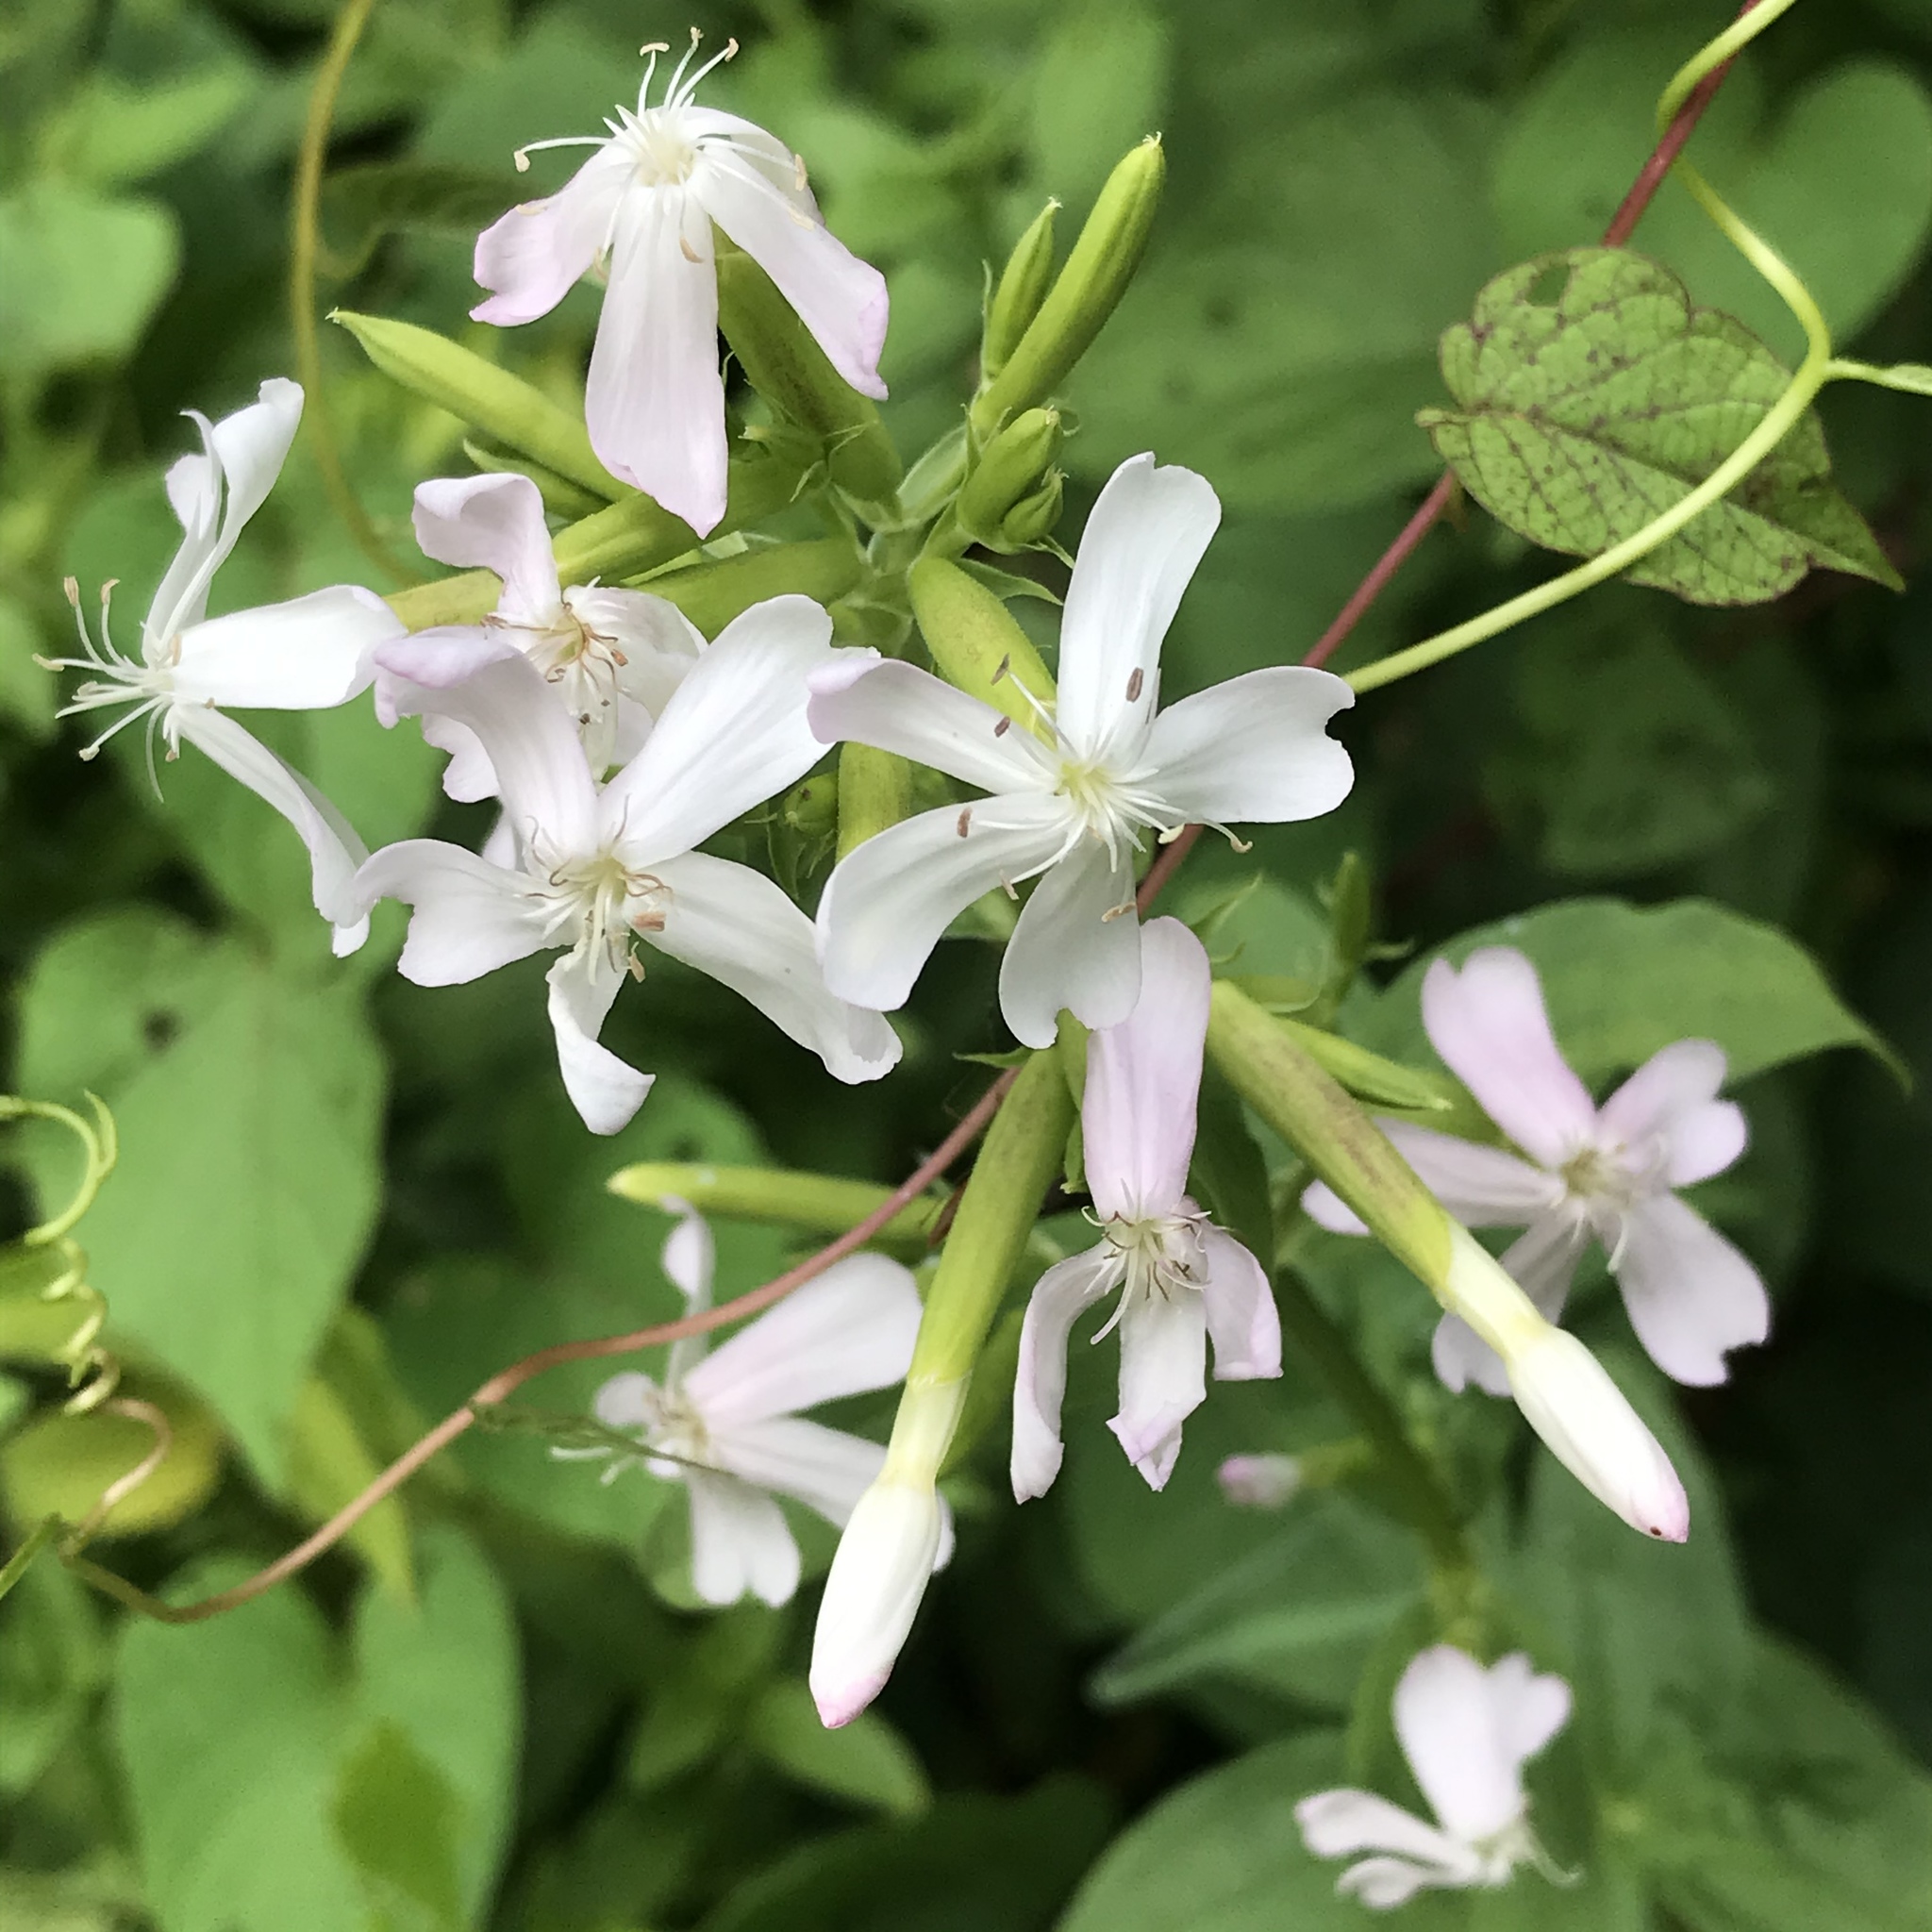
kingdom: Plantae
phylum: Tracheophyta
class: Magnoliopsida
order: Caryophyllales
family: Caryophyllaceae
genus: Saponaria
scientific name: Saponaria officinalis
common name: Soapwort
